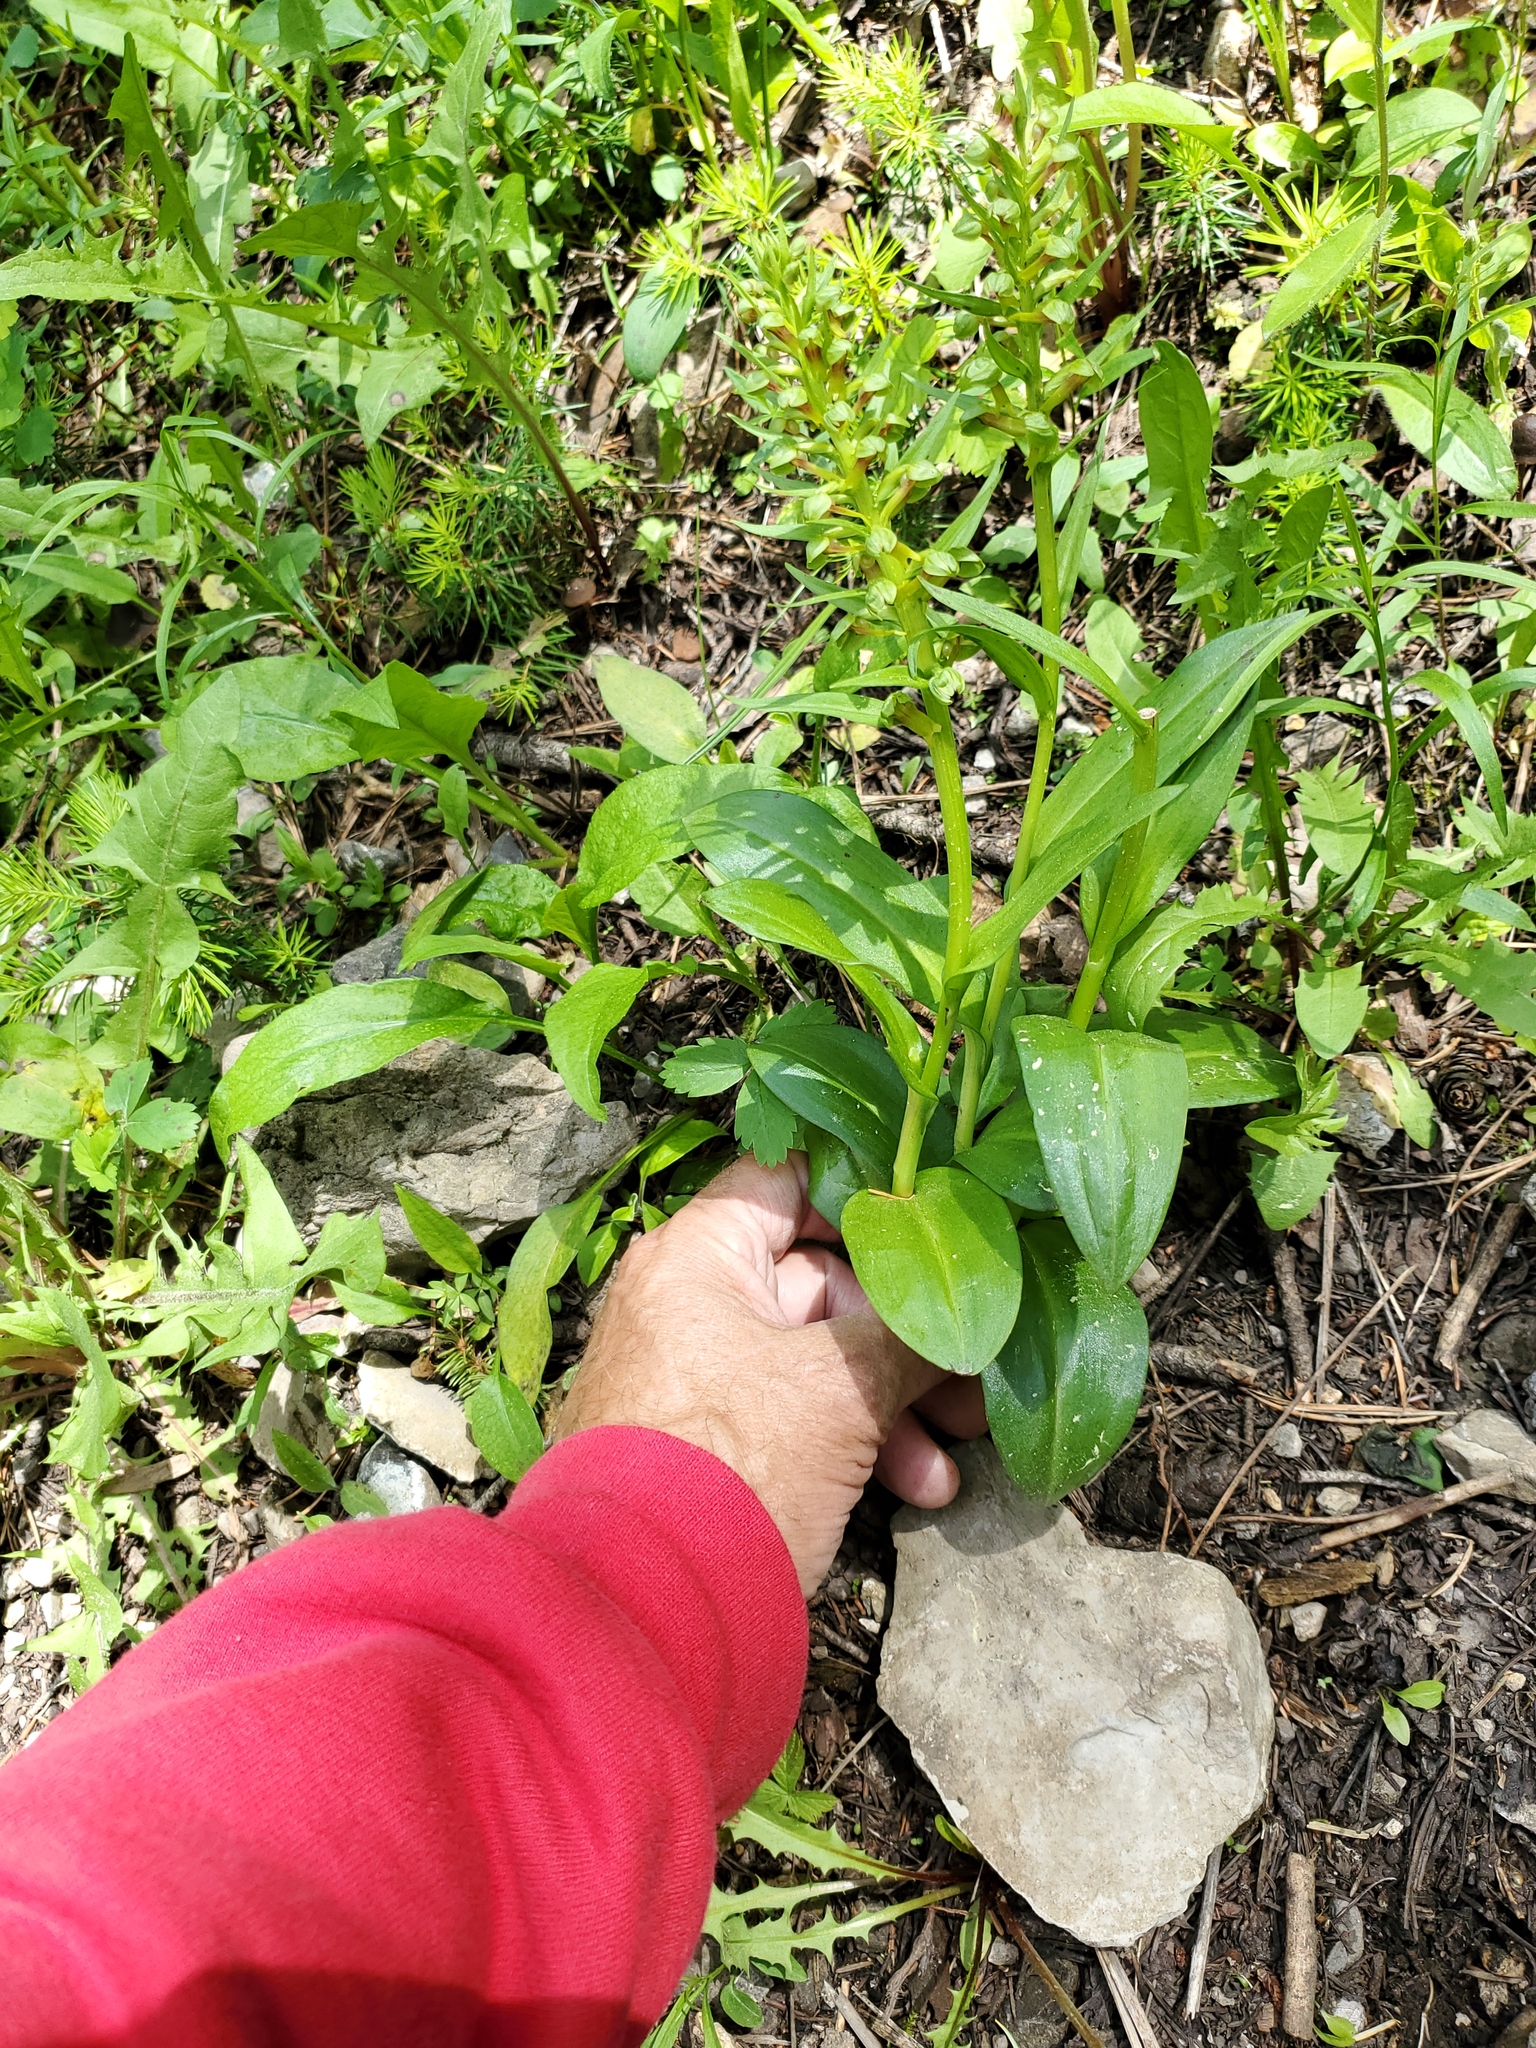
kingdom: Plantae
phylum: Tracheophyta
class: Liliopsida
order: Asparagales
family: Orchidaceae
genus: Dactylorhiza
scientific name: Dactylorhiza viridis
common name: Longbract frog orchid
